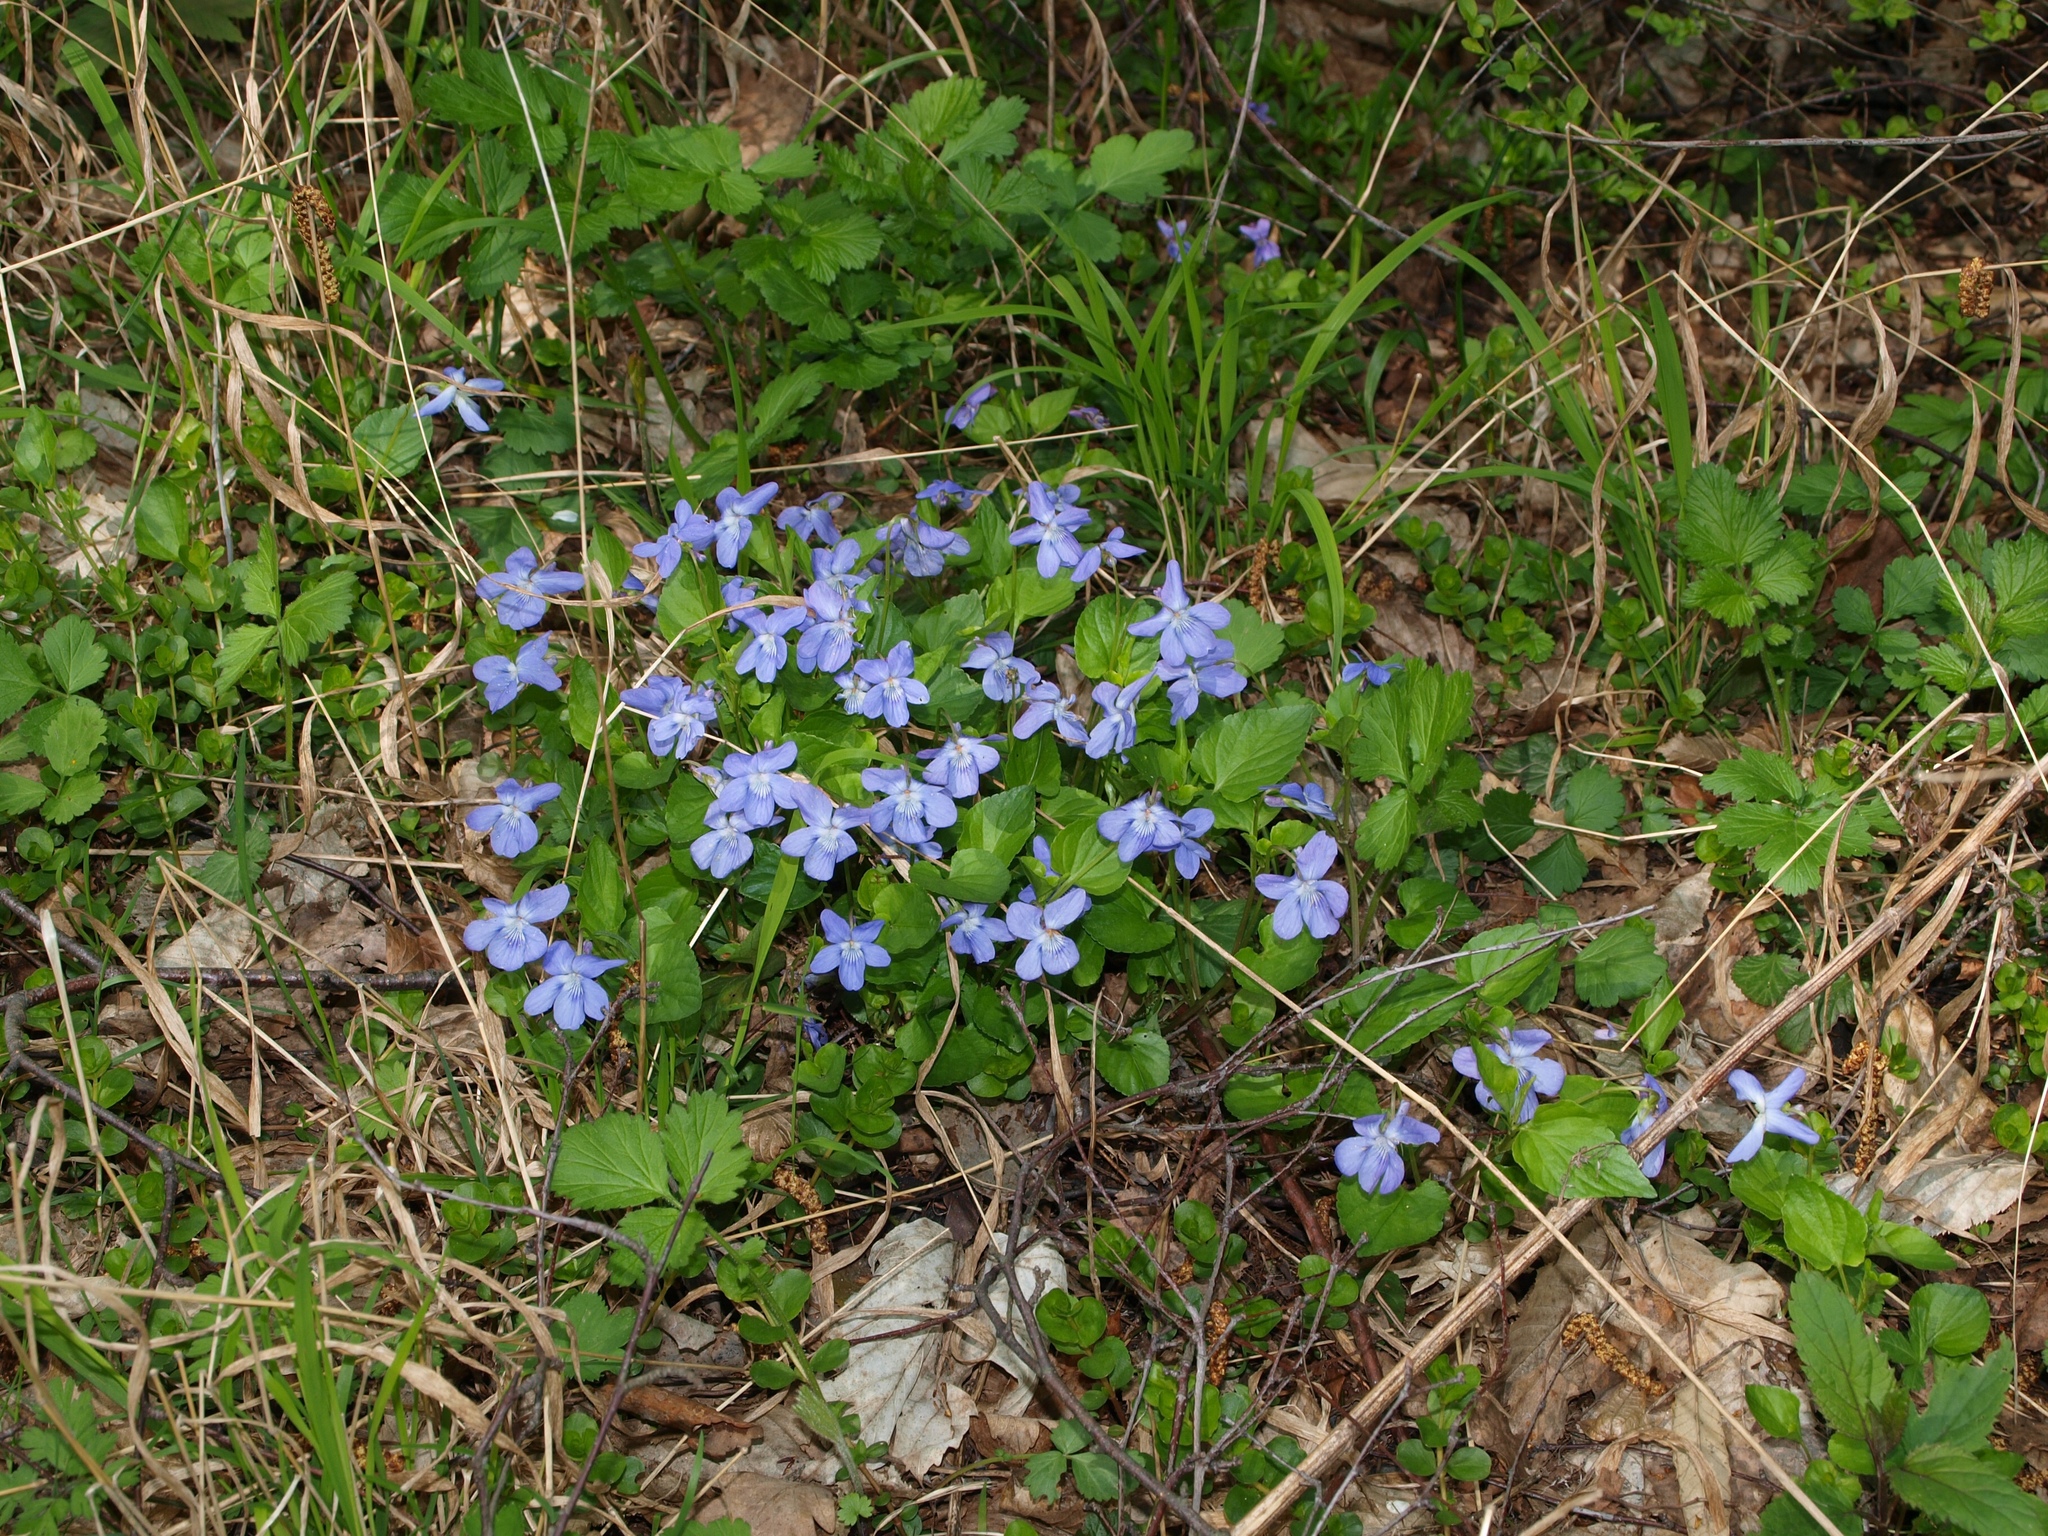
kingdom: Plantae
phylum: Tracheophyta
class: Magnoliopsida
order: Malpighiales
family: Violaceae
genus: Viola
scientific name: Viola reichenbachiana
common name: Early dog-violet
